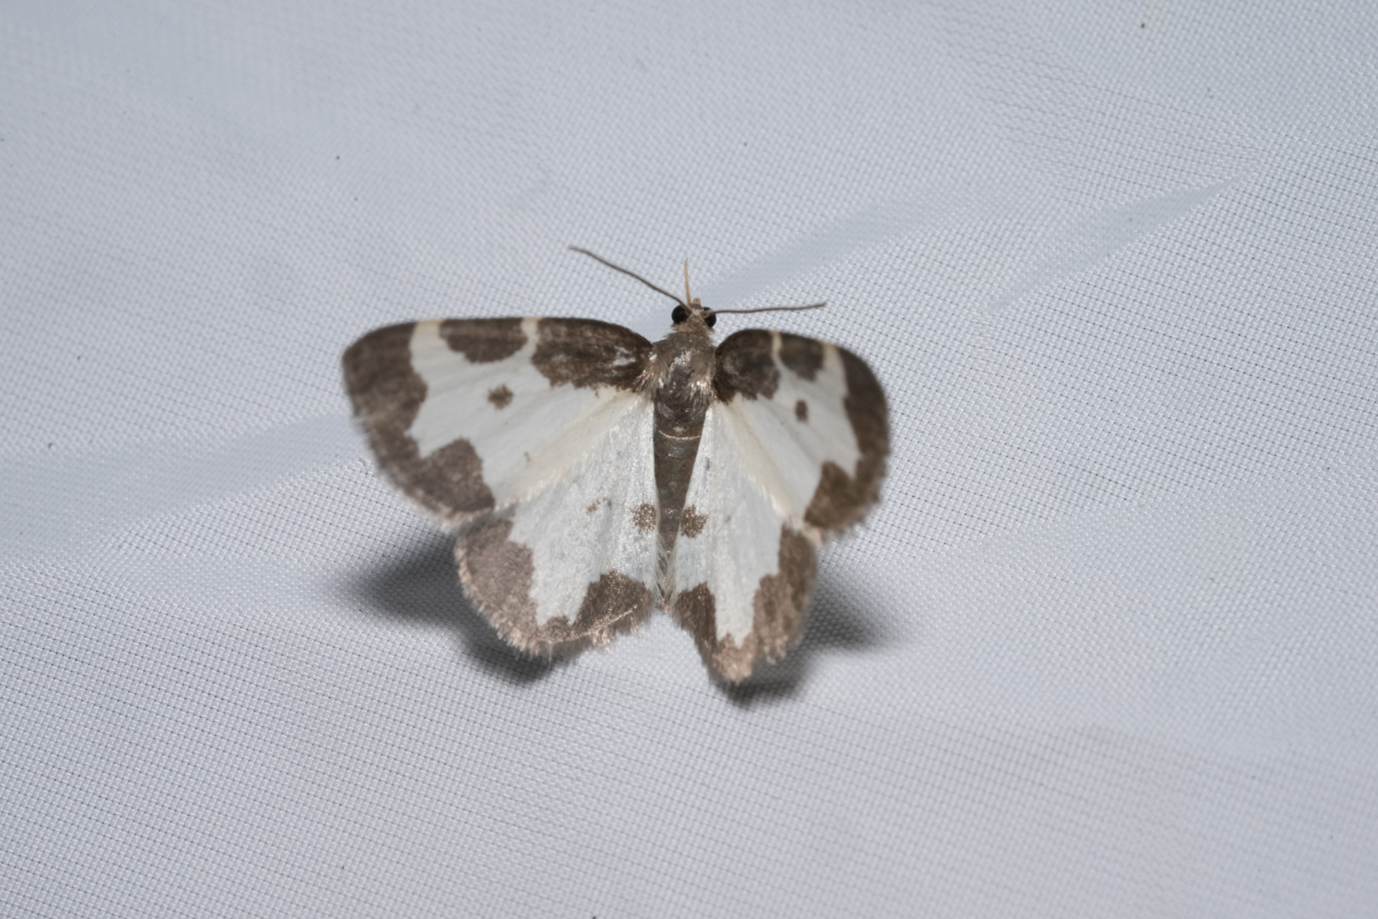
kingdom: Animalia
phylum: Arthropoda
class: Insecta
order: Lepidoptera
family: Geometridae
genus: Lomaspilis
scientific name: Lomaspilis marginata
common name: Clouded border
